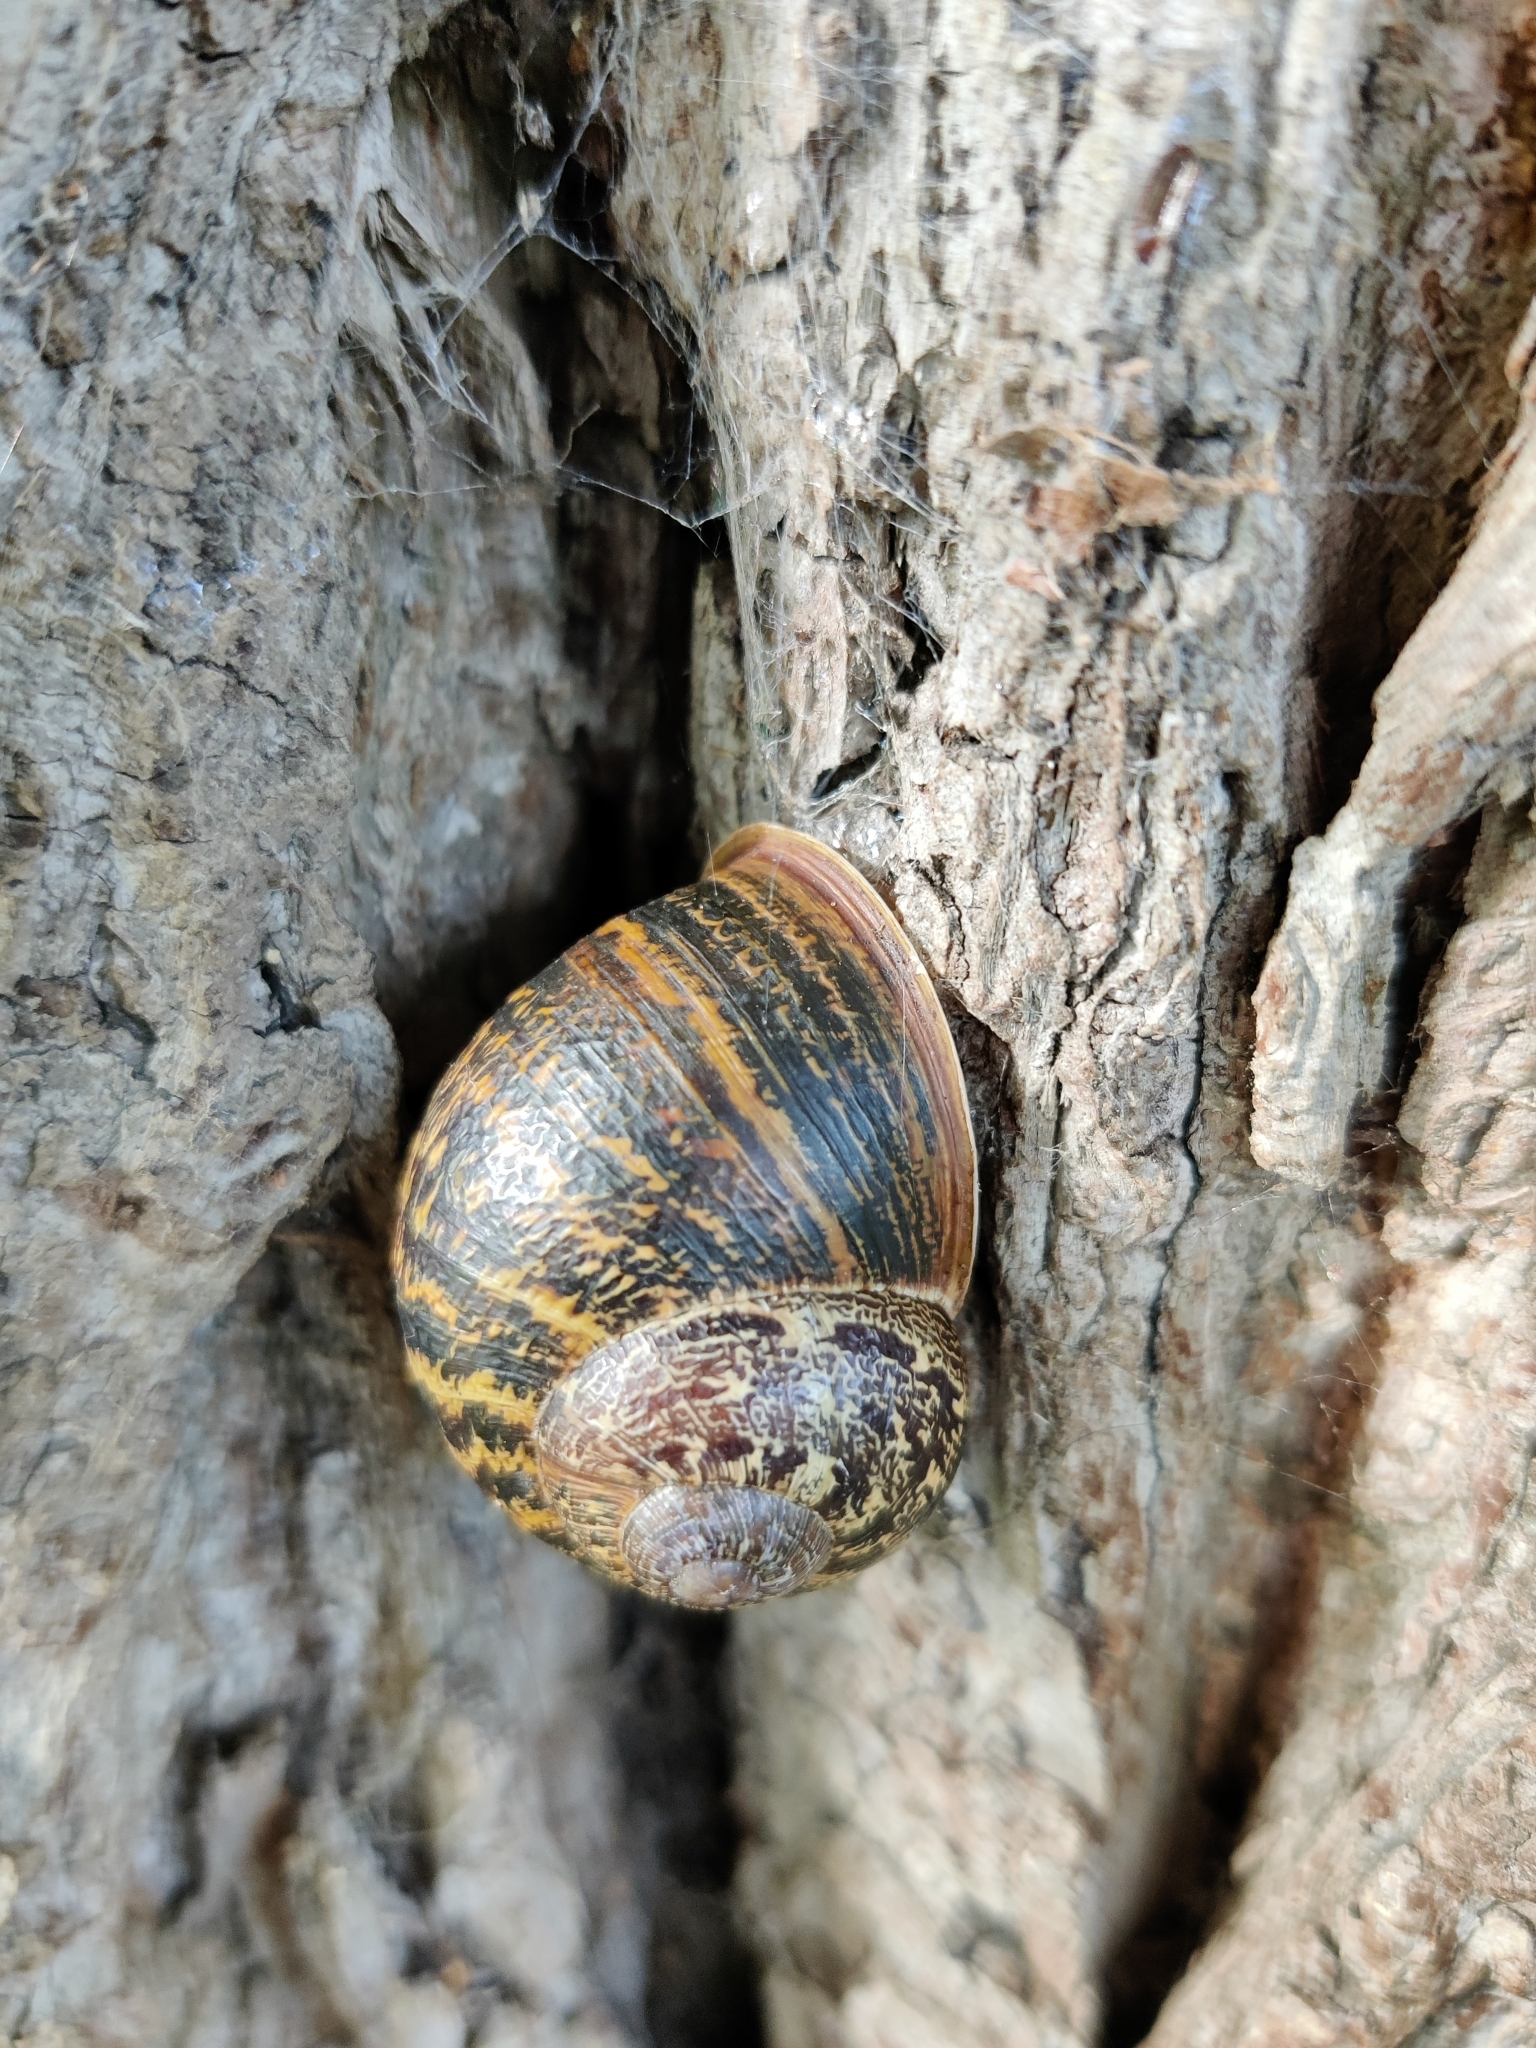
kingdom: Animalia
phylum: Mollusca
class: Gastropoda
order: Stylommatophora
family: Helicidae
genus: Cornu
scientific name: Cornu aspersum
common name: Brown garden snail
